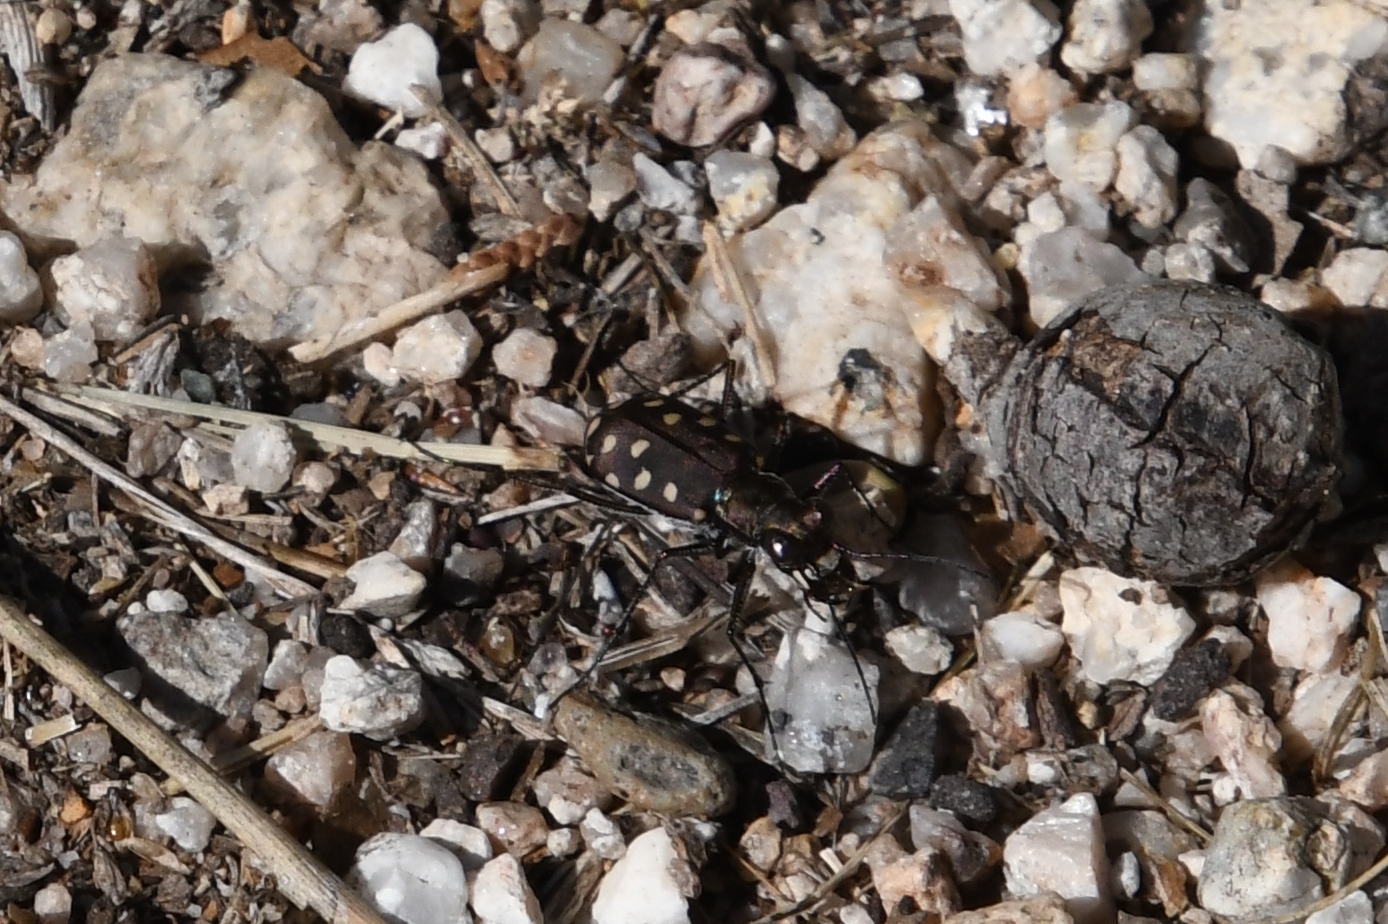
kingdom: Animalia
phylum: Arthropoda
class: Insecta
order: Coleoptera
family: Carabidae
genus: Cicindela
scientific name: Cicindela sedecimpunctata
